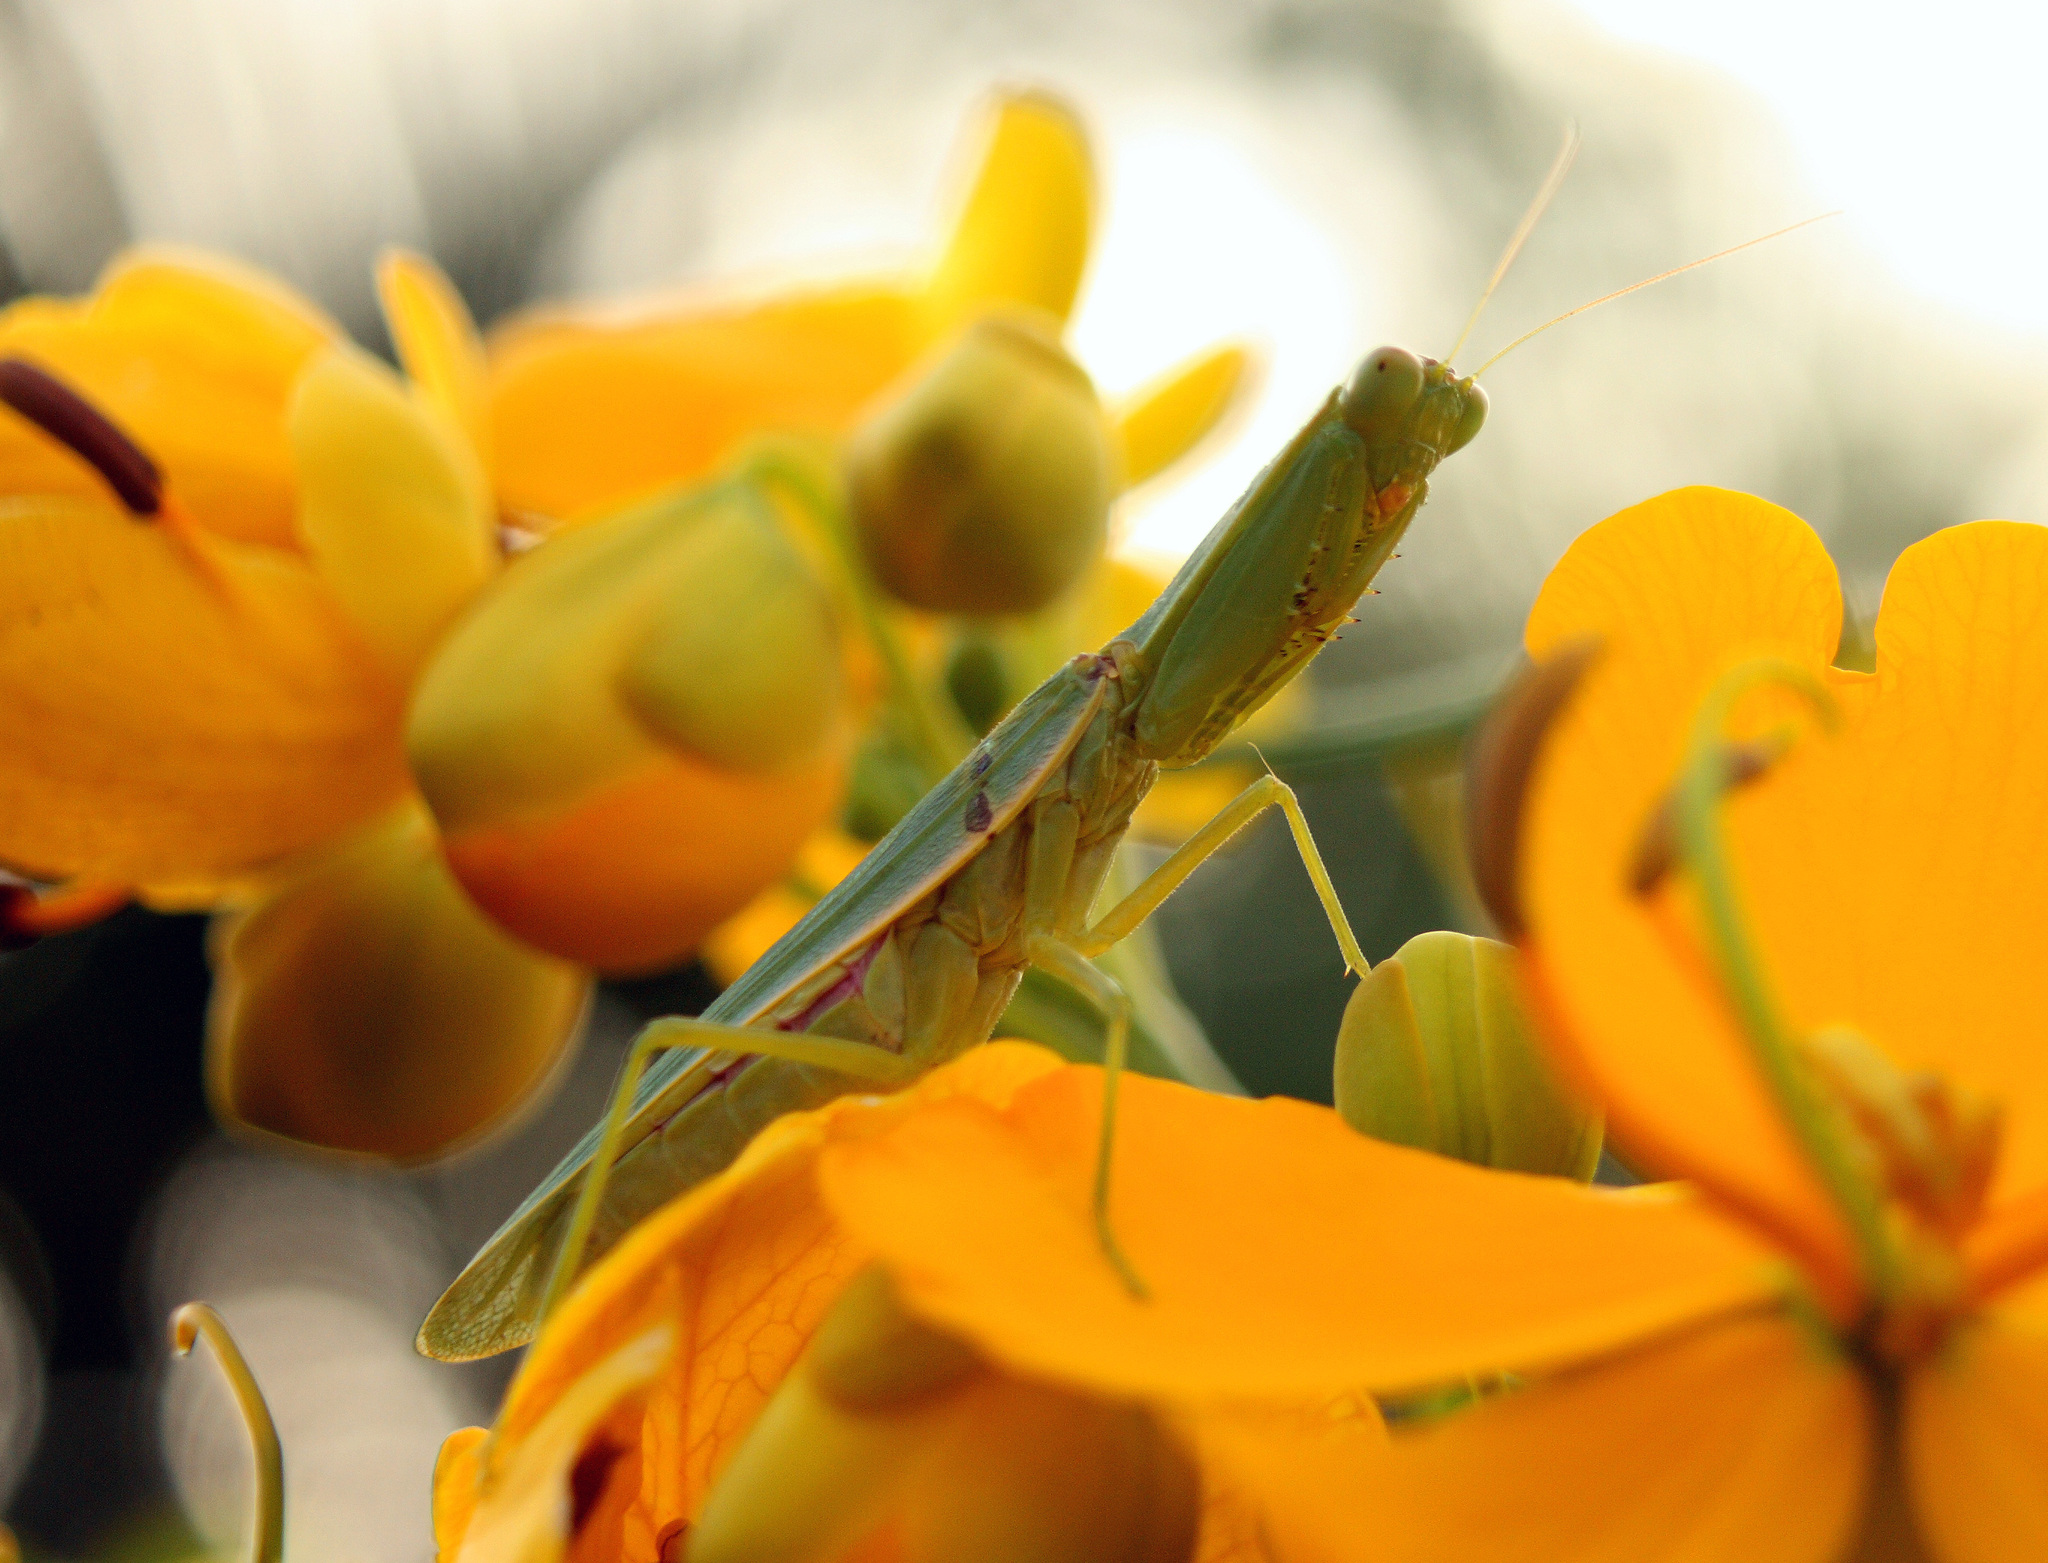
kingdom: Animalia
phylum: Arthropoda
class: Insecta
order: Mantodea
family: Mantidae
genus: Orthodera
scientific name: Orthodera ministralis
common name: Mantis
